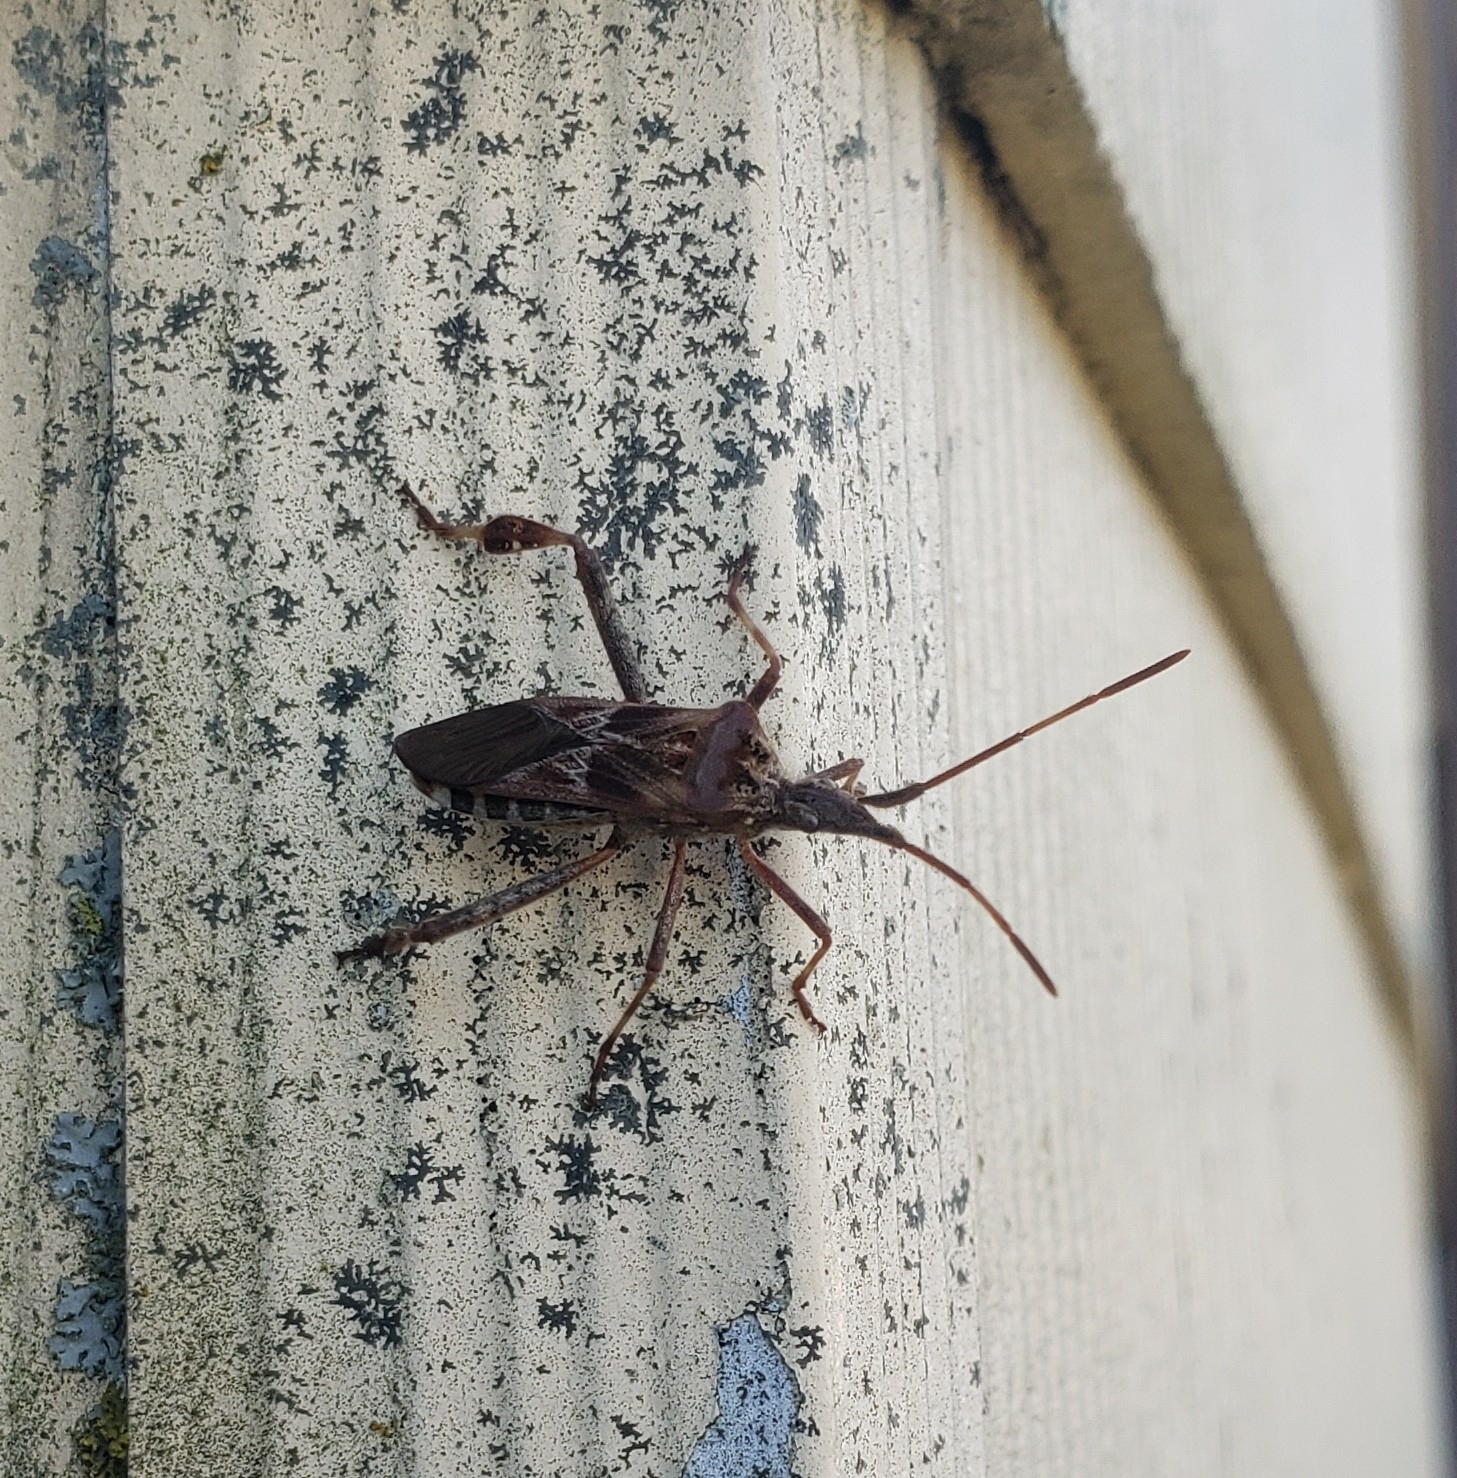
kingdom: Animalia
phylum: Arthropoda
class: Insecta
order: Hemiptera
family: Coreidae
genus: Leptoglossus
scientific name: Leptoglossus occidentalis
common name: Western conifer-seed bug
